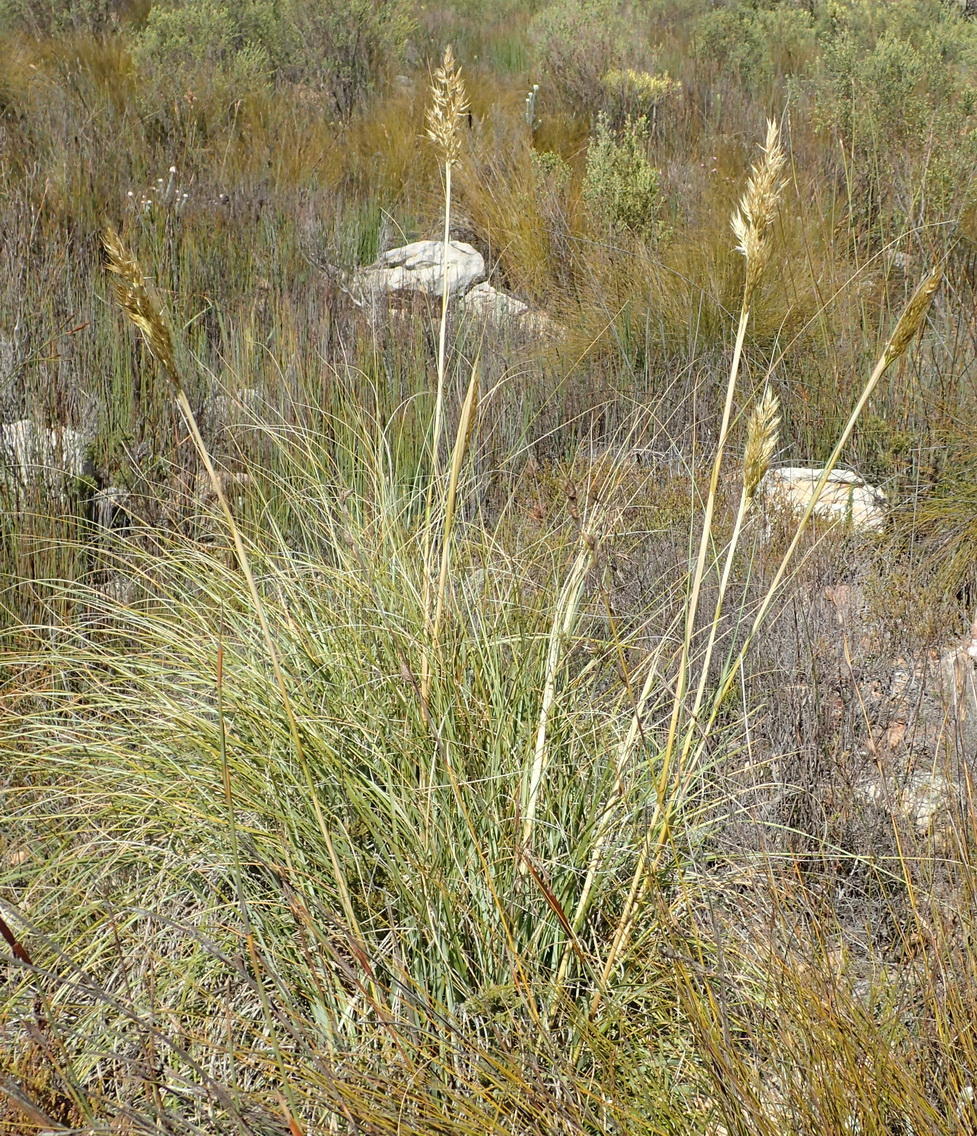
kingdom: Plantae
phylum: Tracheophyta
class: Liliopsida
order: Poales
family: Poaceae
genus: Tenaxia
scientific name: Tenaxia stricta
